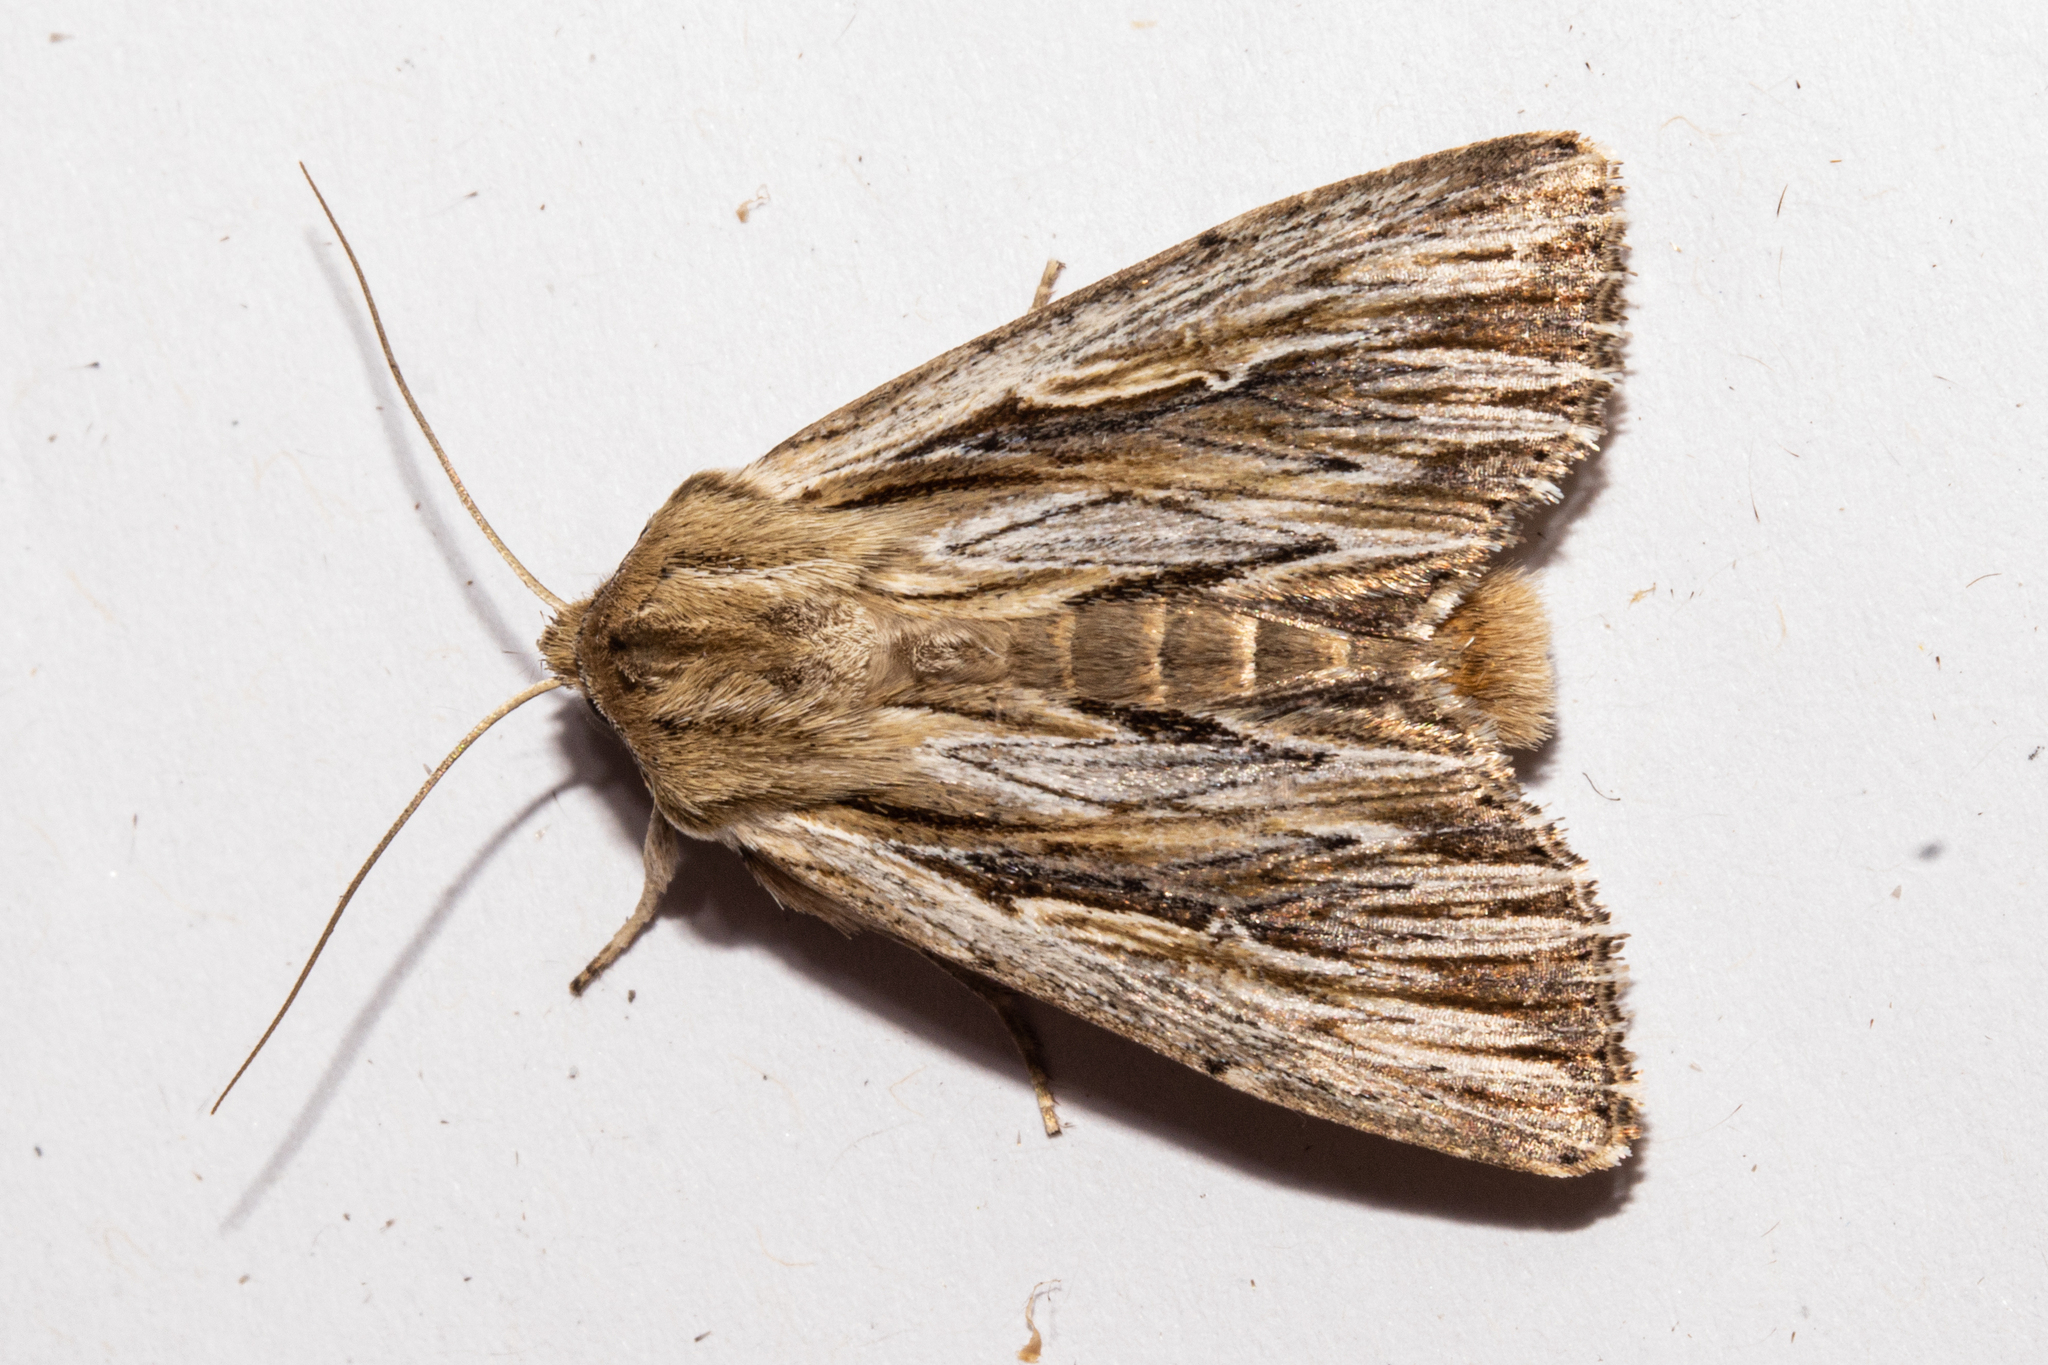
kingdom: Animalia
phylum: Arthropoda
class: Insecta
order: Lepidoptera
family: Noctuidae
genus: Persectania
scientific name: Persectania aversa
